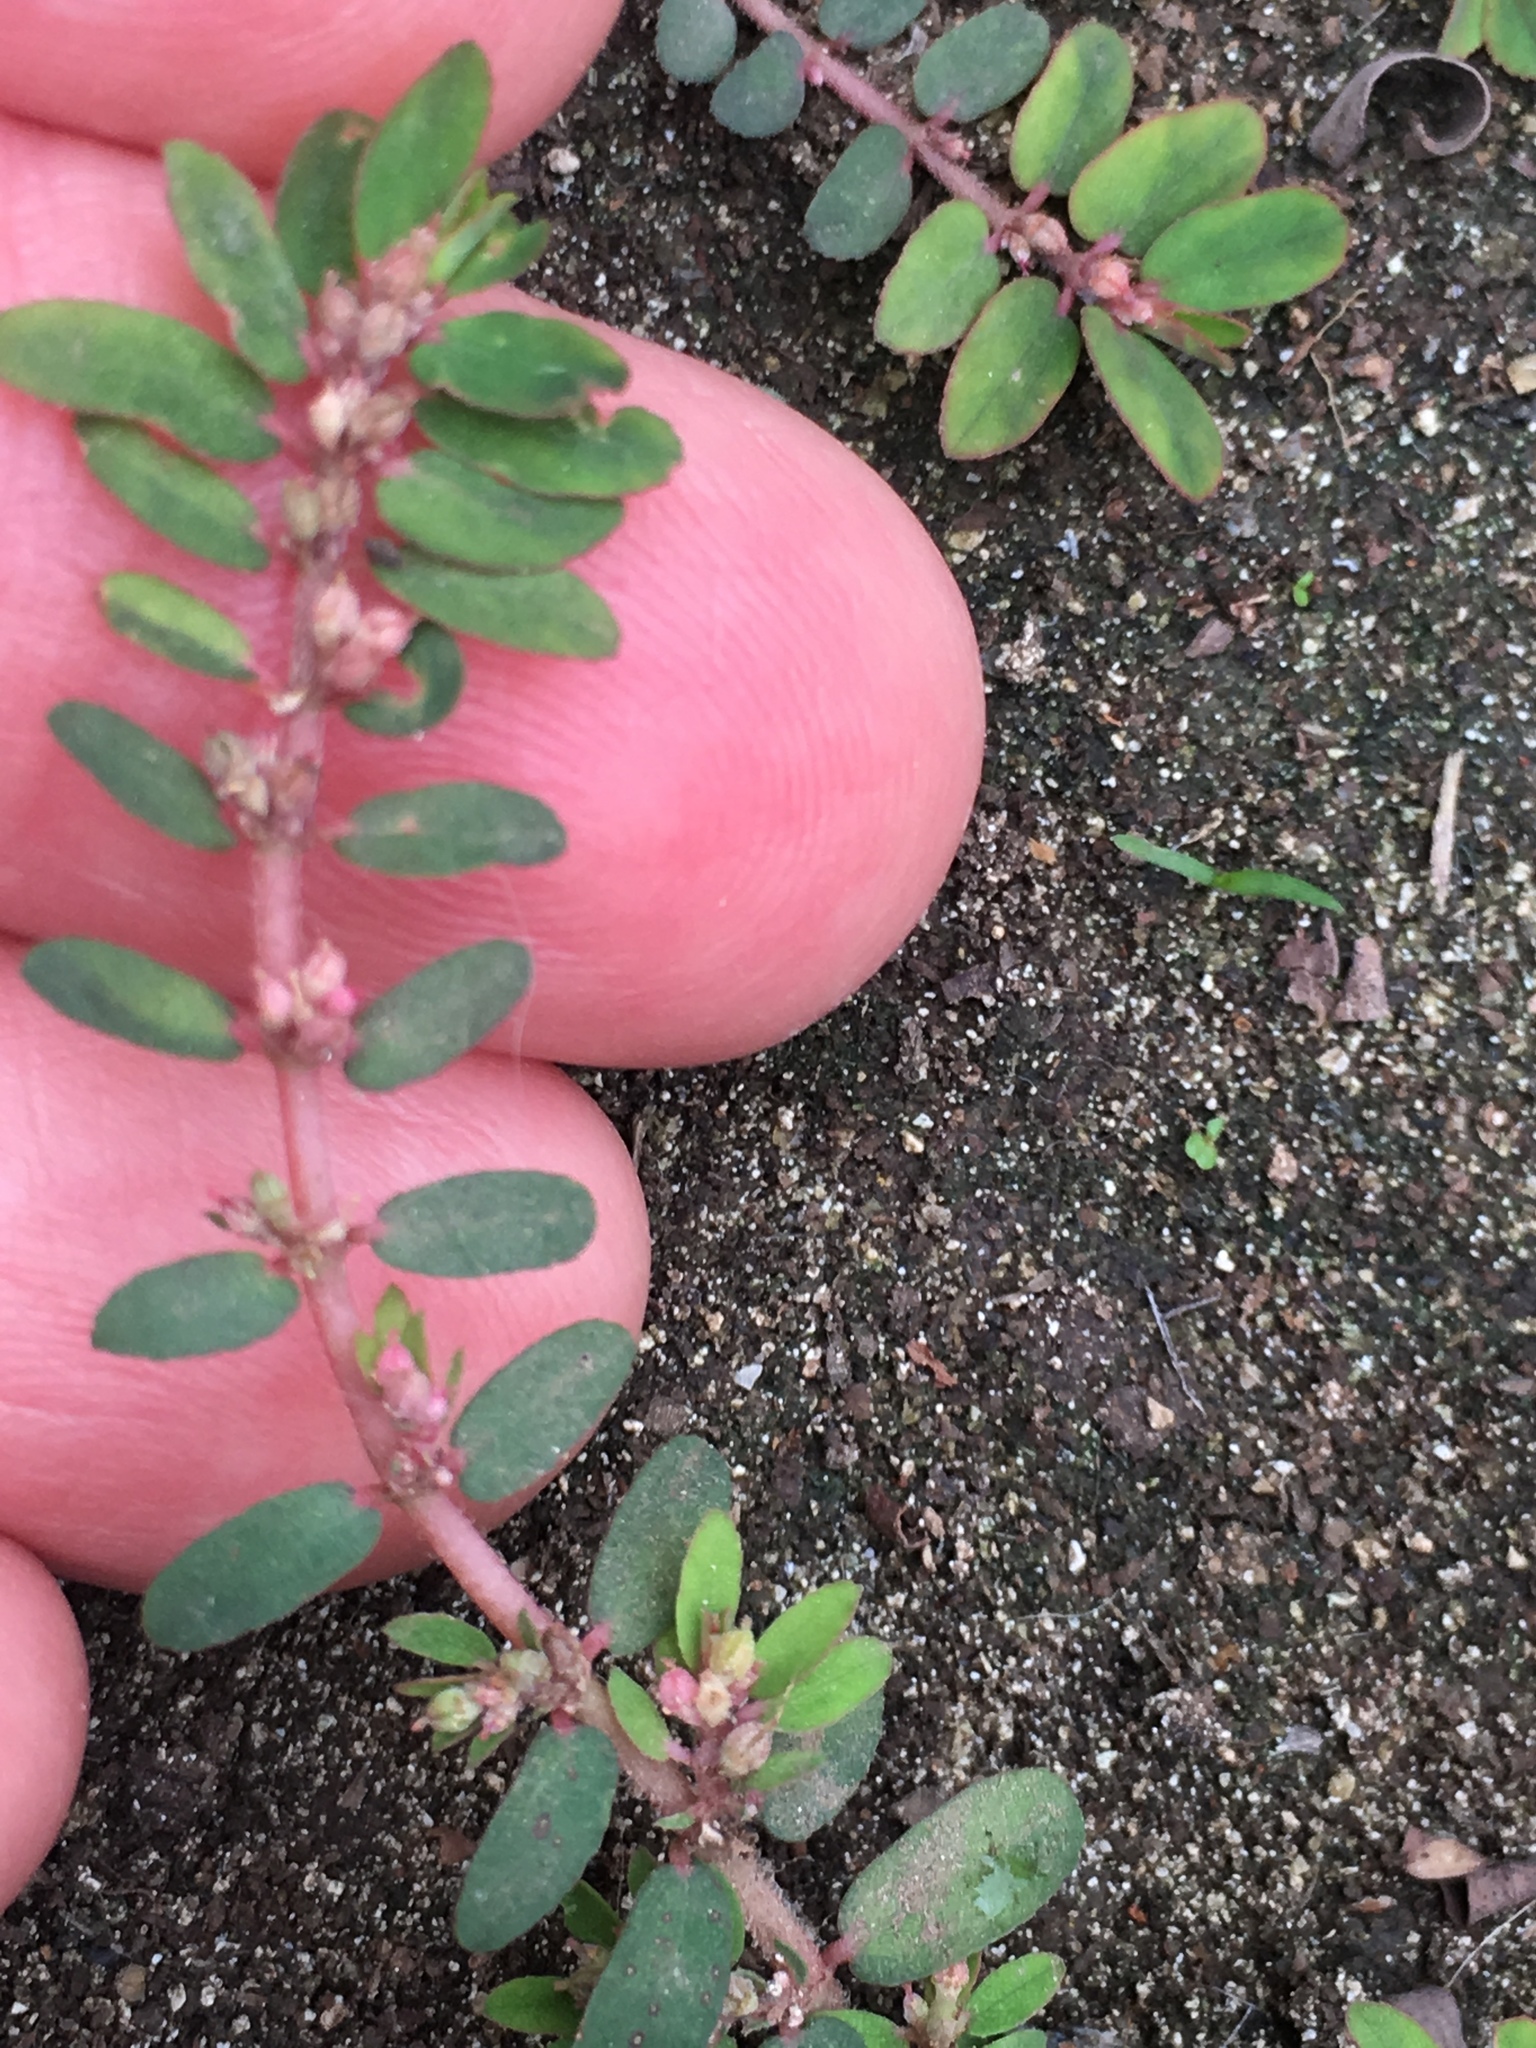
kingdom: Plantae
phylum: Tracheophyta
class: Magnoliopsida
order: Malpighiales
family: Euphorbiaceae
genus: Euphorbia
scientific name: Euphorbia thymifolia
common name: Gulf sandmat
